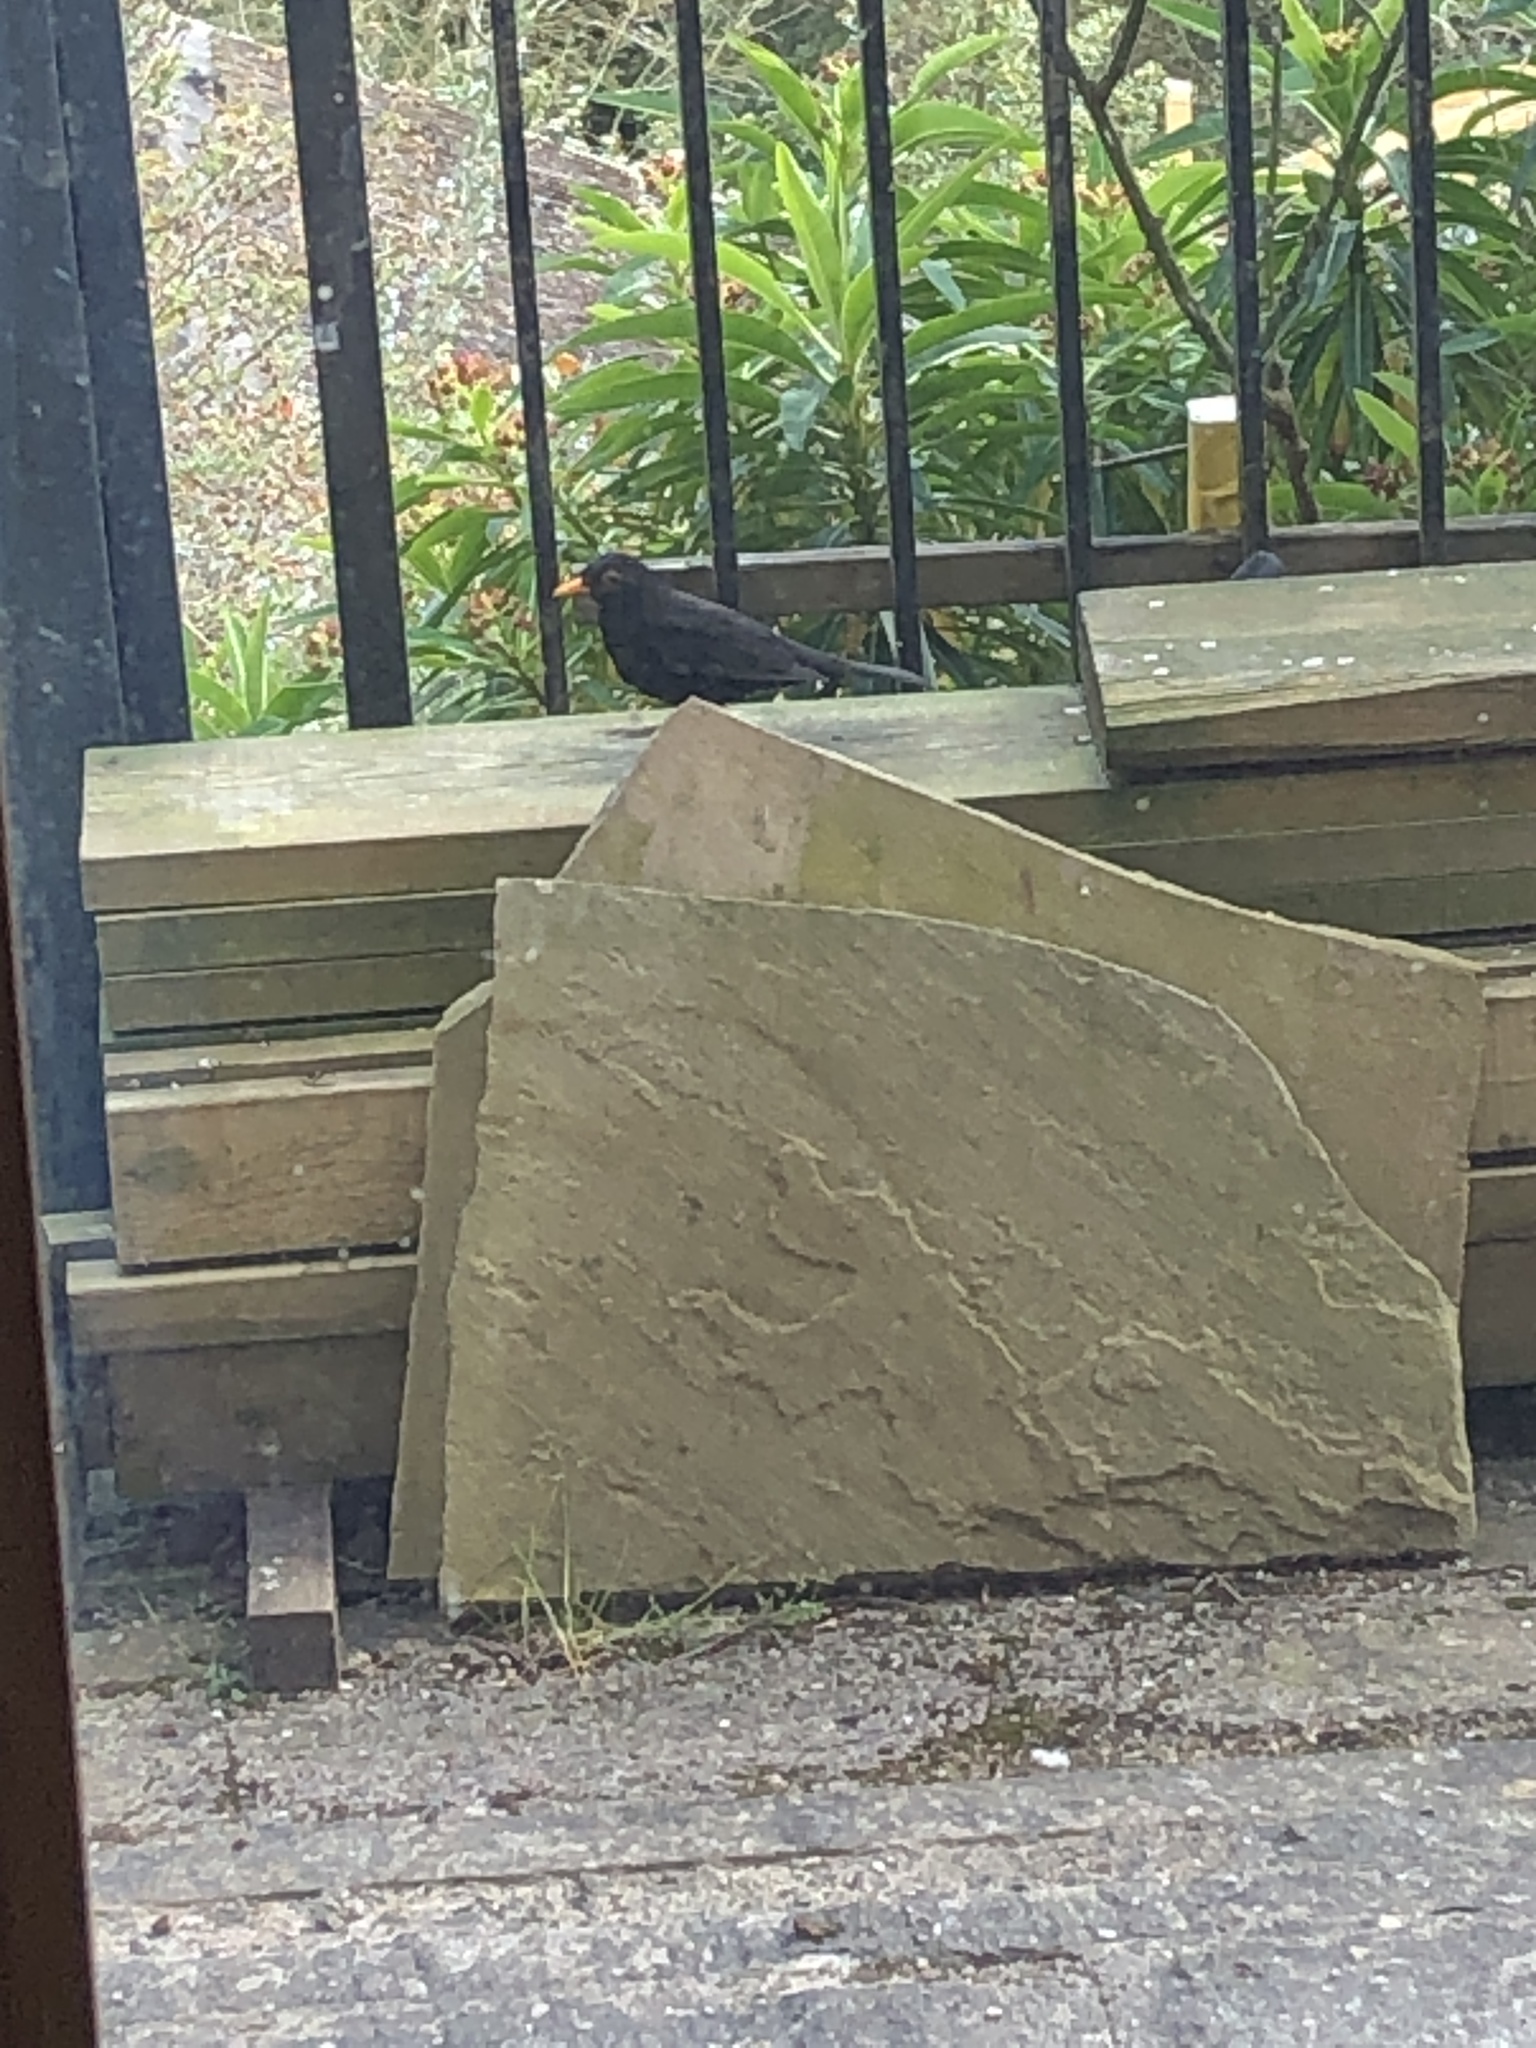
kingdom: Animalia
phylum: Chordata
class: Aves
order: Passeriformes
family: Turdidae
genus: Turdus
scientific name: Turdus merula
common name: Common blackbird
